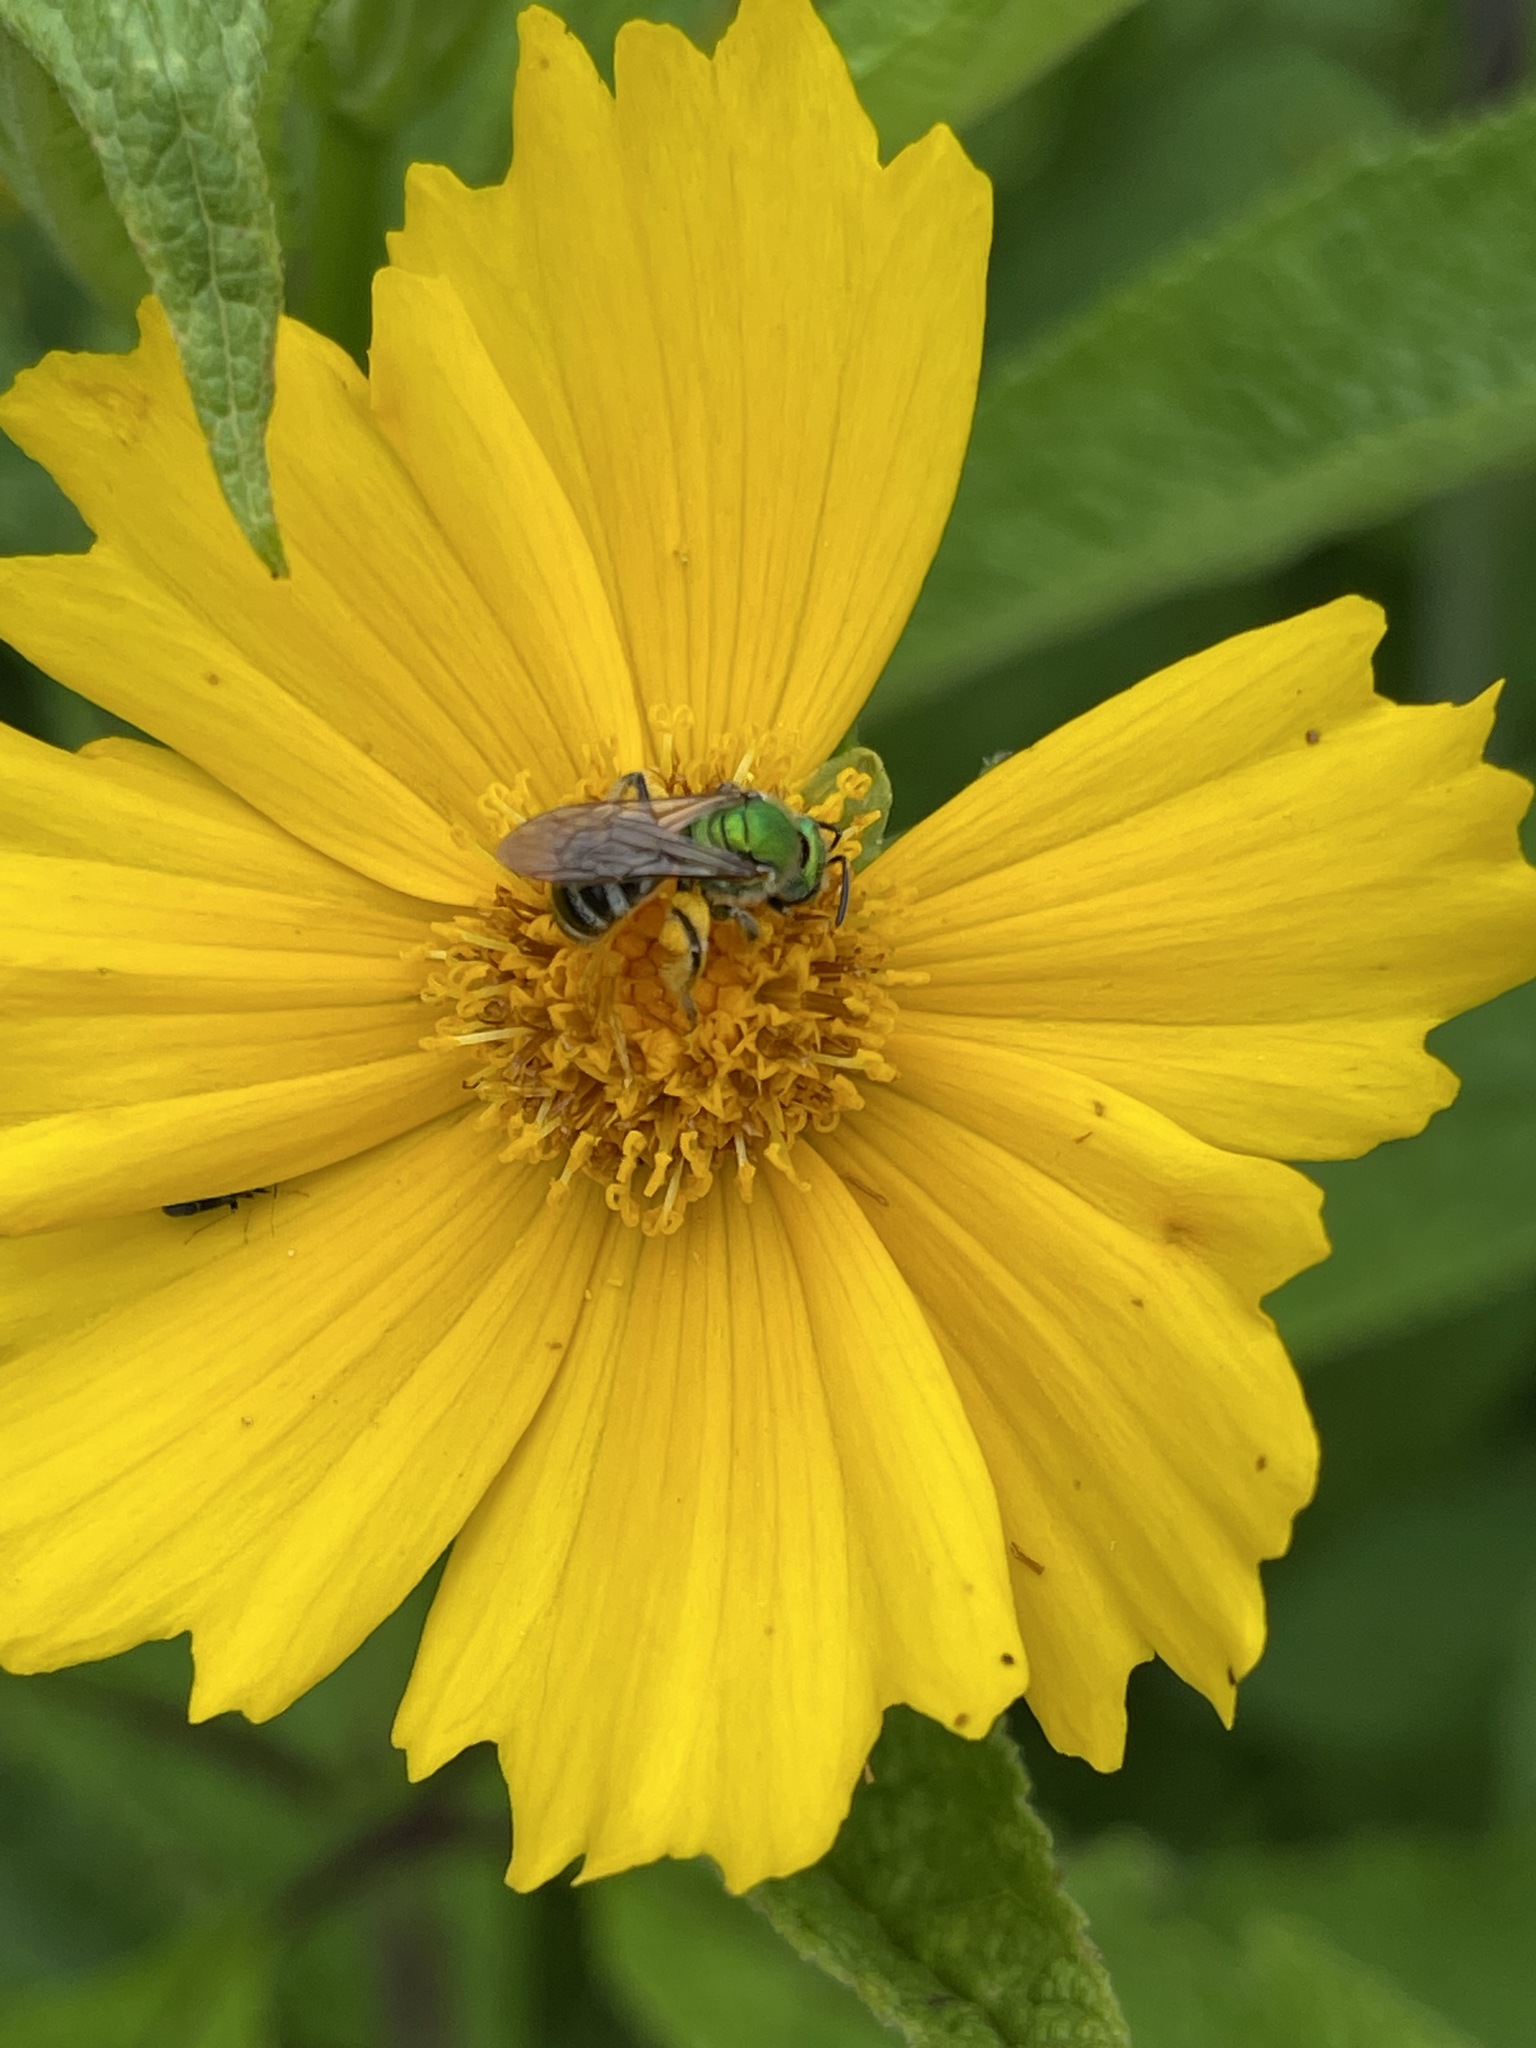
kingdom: Animalia
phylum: Arthropoda
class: Insecta
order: Hymenoptera
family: Halictidae
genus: Agapostemon
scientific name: Agapostemon virescens
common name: Bicolored striped sweat bee
